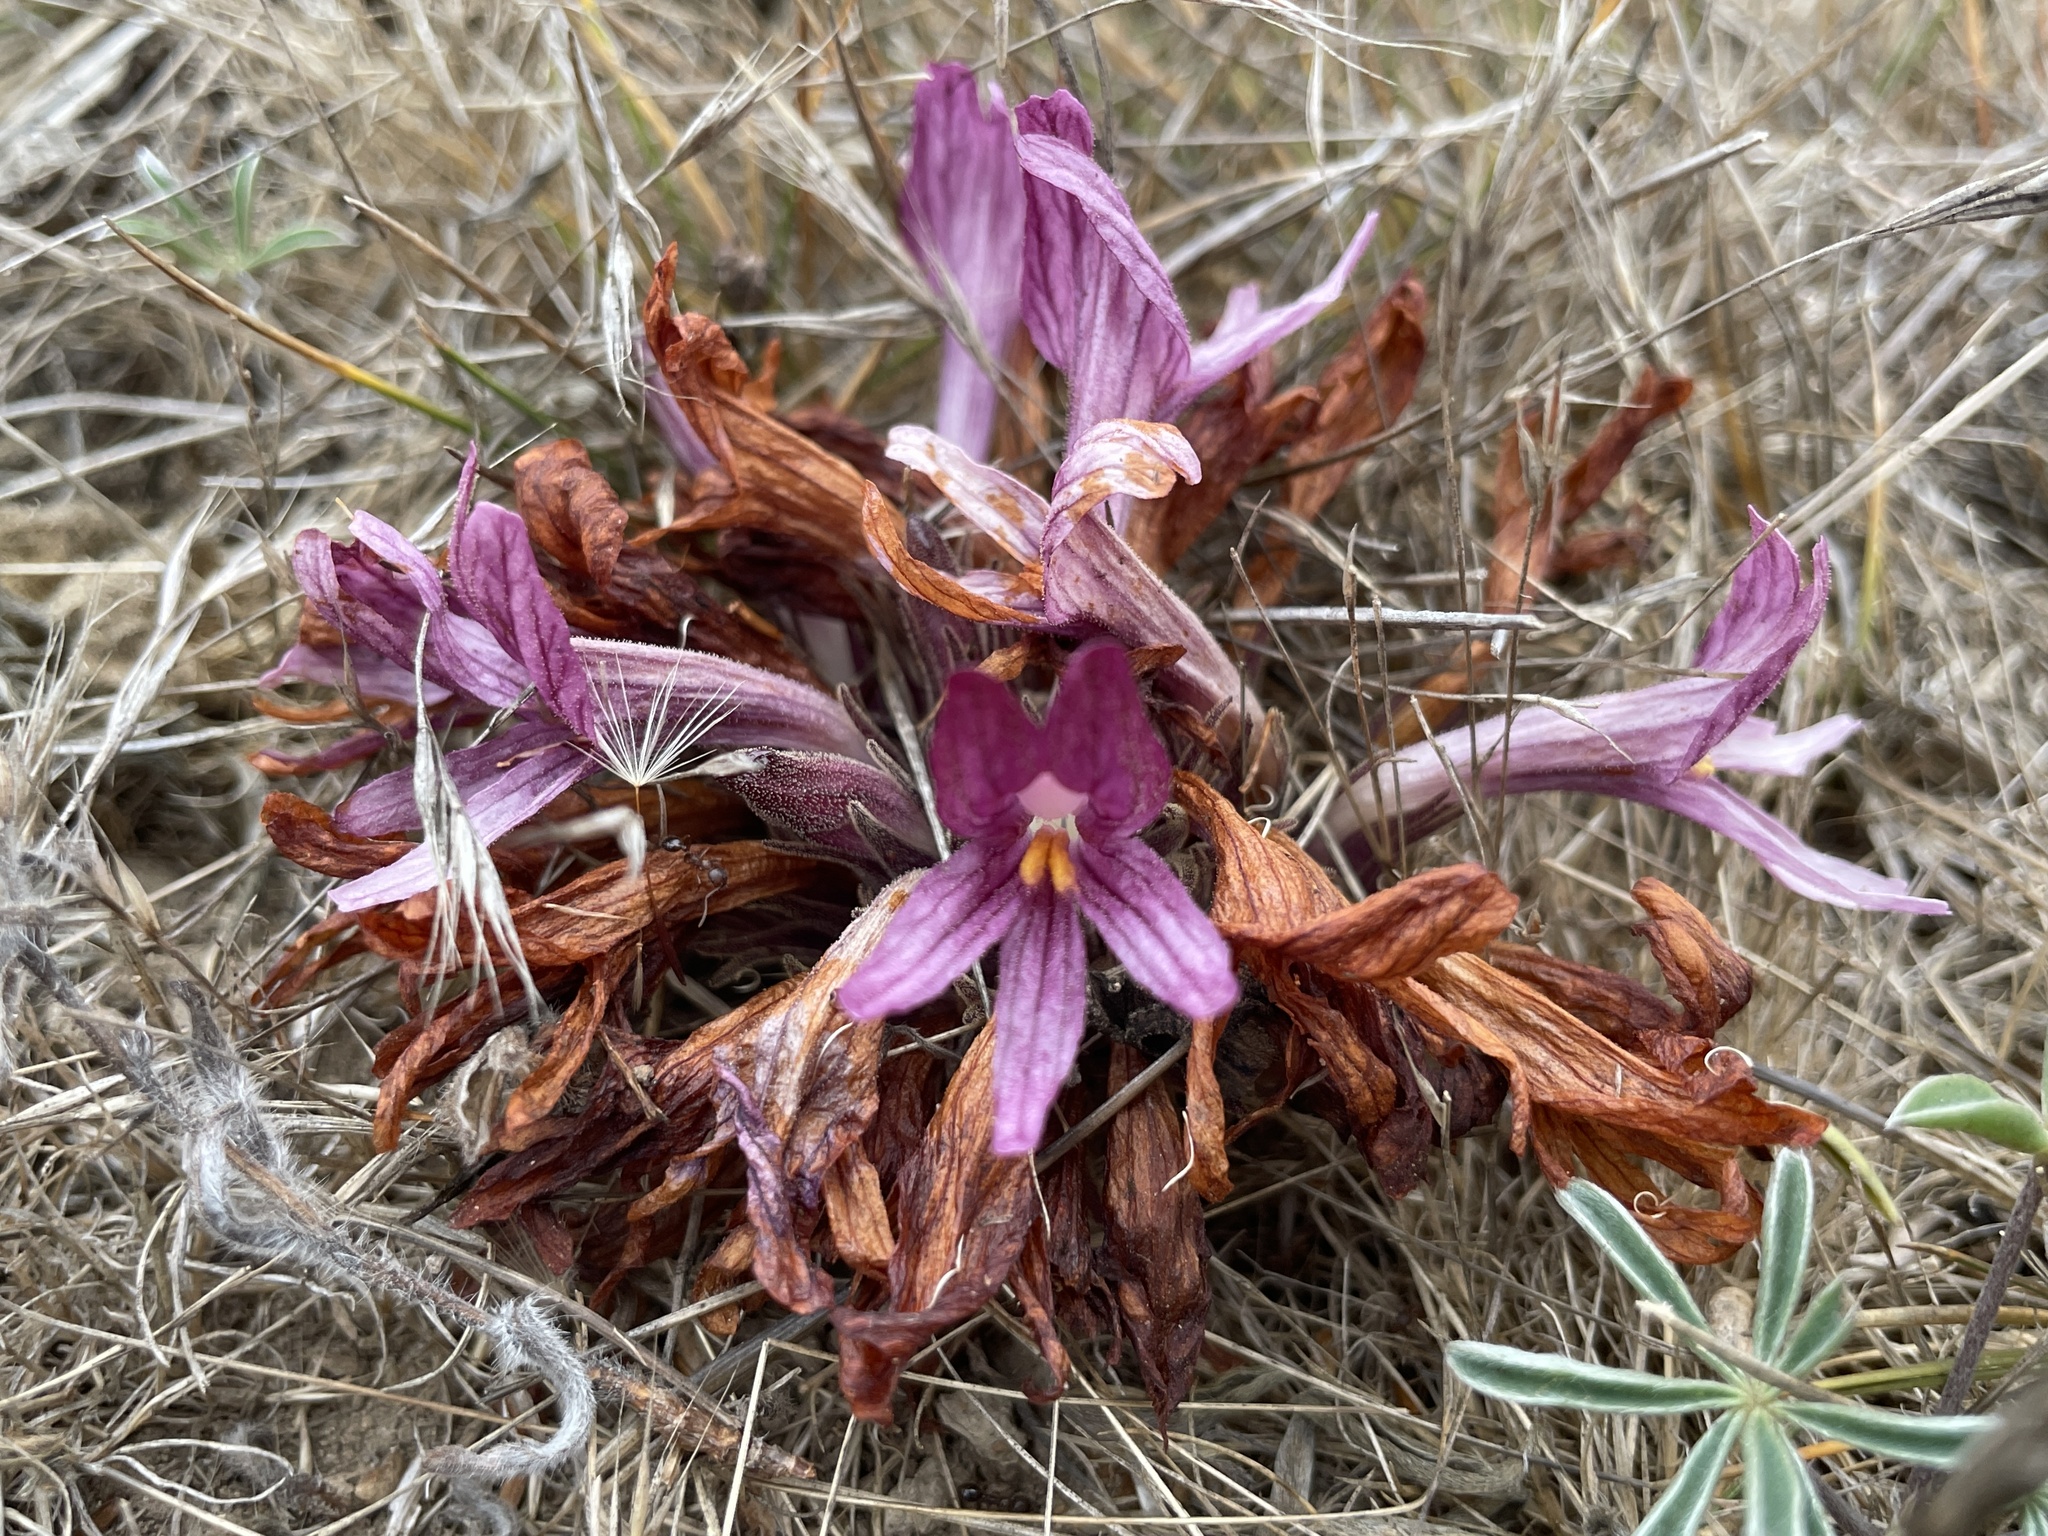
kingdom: Plantae
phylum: Tracheophyta
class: Magnoliopsida
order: Lamiales
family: Orobanchaceae
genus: Aphyllon
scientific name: Aphyllon californicum
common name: California broomrape
